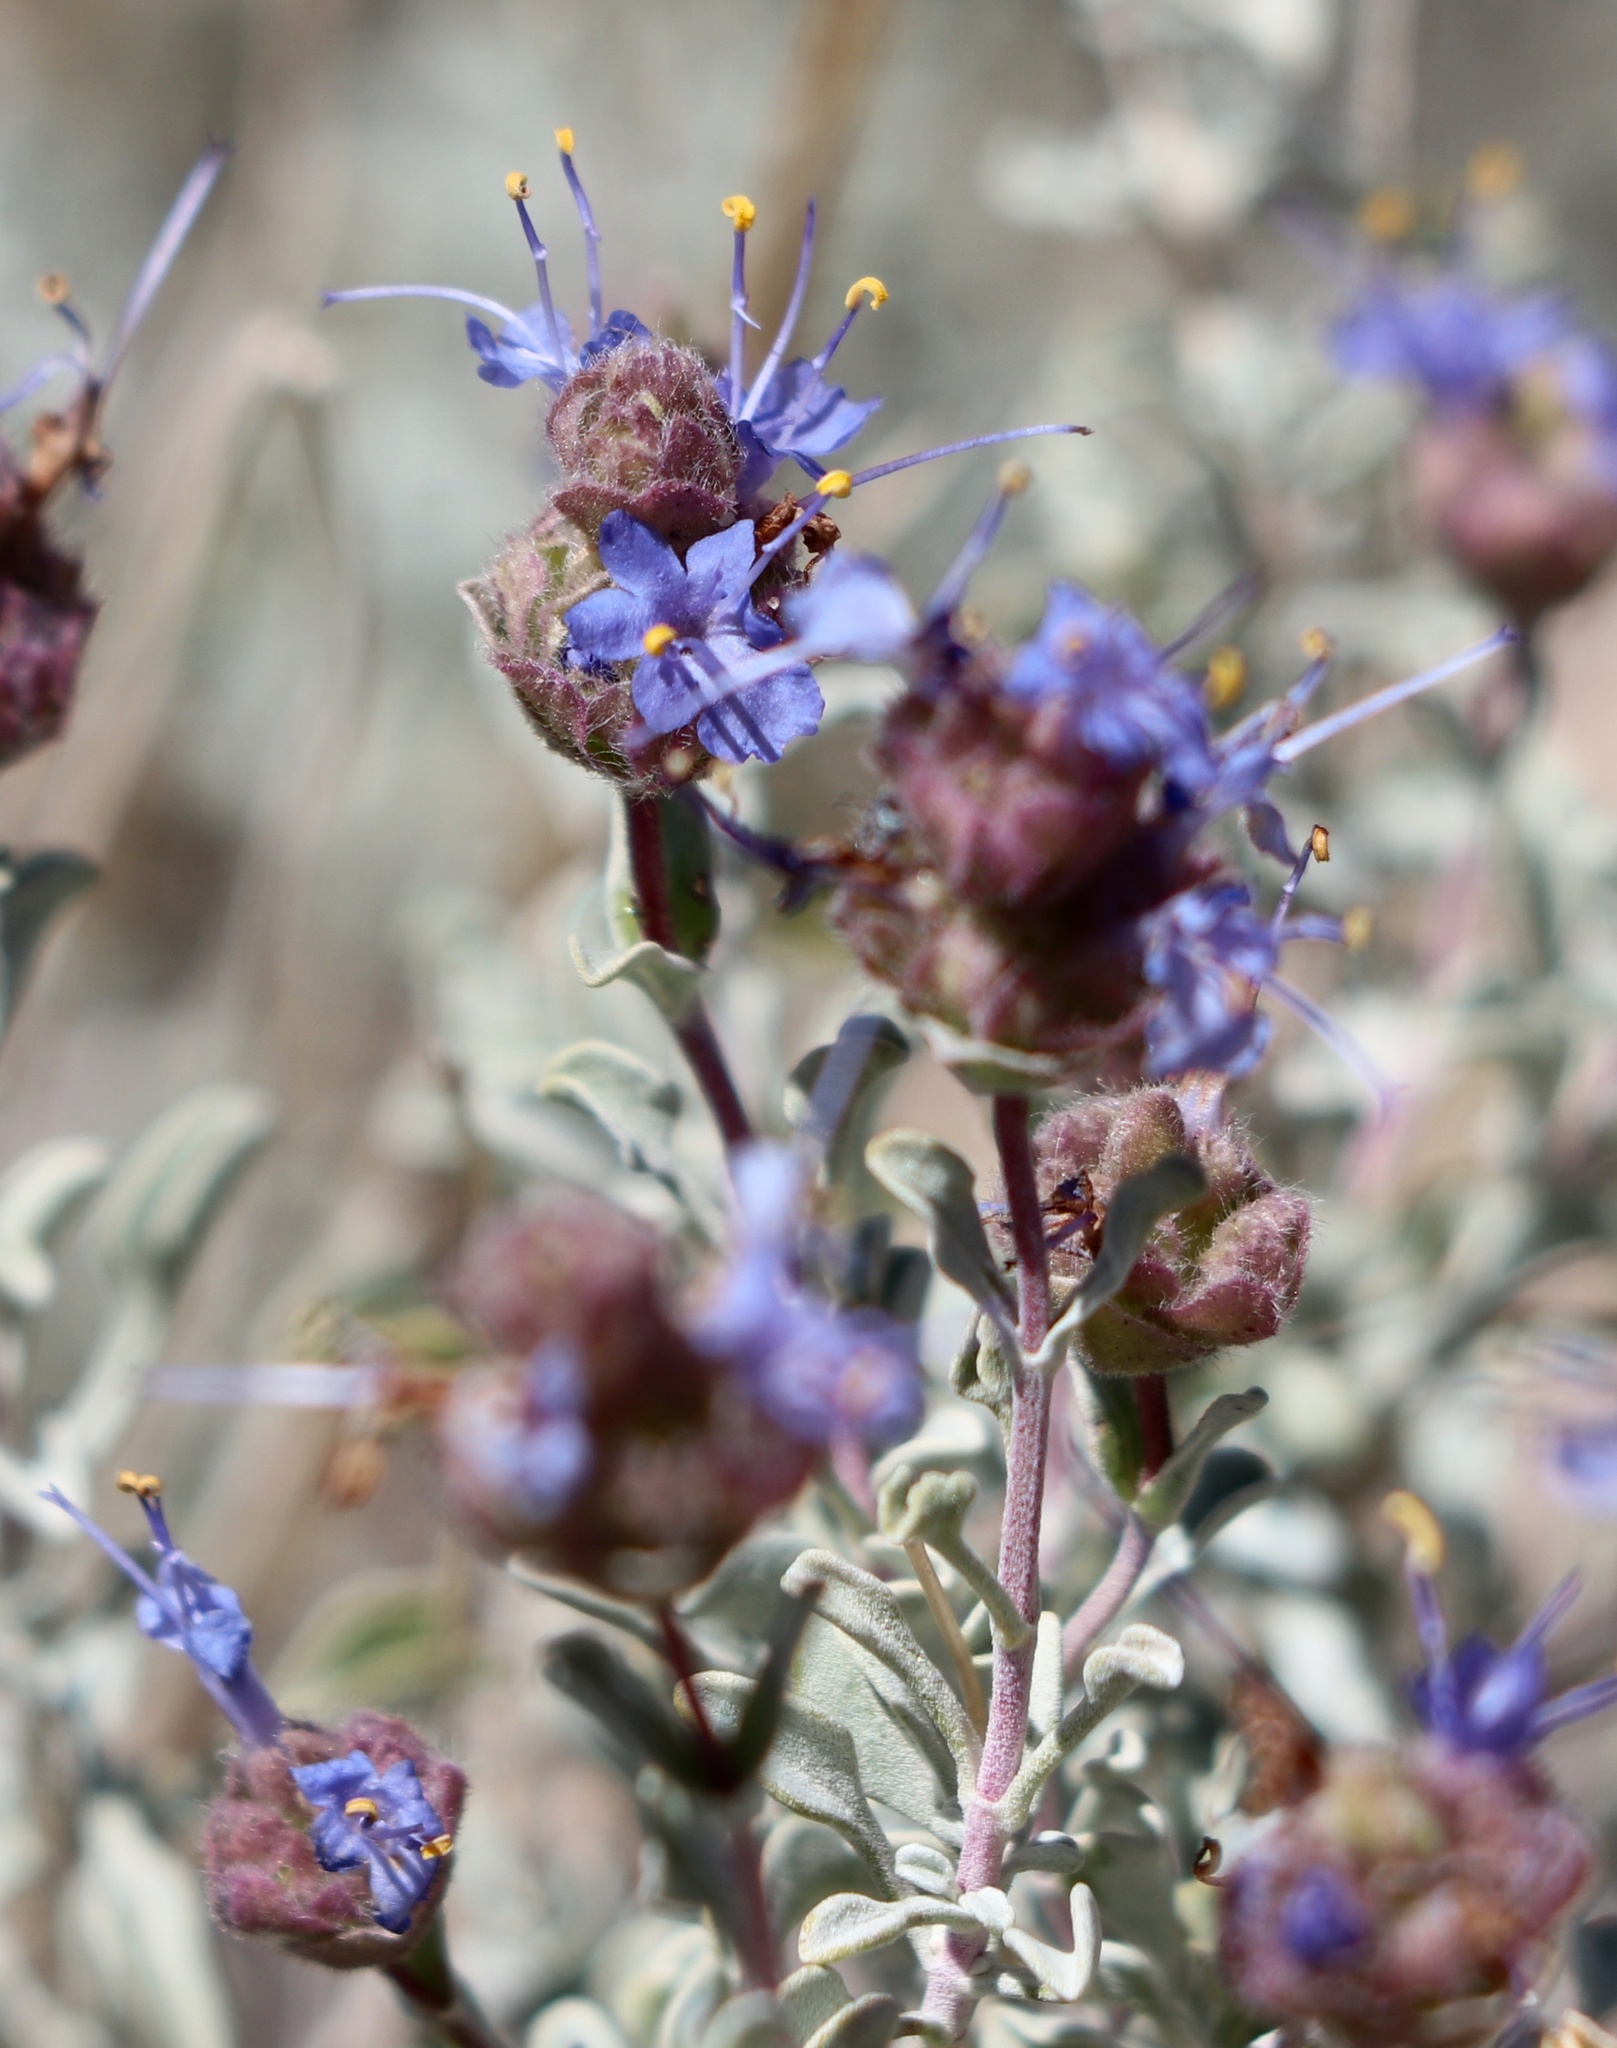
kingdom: Plantae
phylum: Tracheophyta
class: Magnoliopsida
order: Lamiales
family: Lamiaceae
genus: Salvia
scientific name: Salvia dorrii
